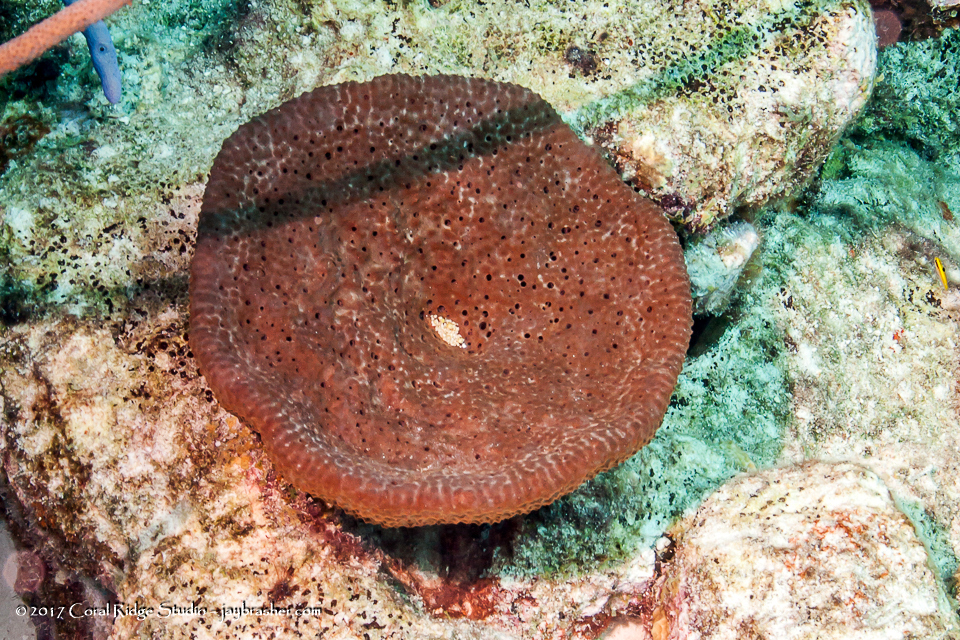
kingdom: Animalia
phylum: Porifera
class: Demospongiae
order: Dictyoceratida
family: Irciniidae
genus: Ircinia
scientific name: Ircinia campana
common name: Vase sponge
